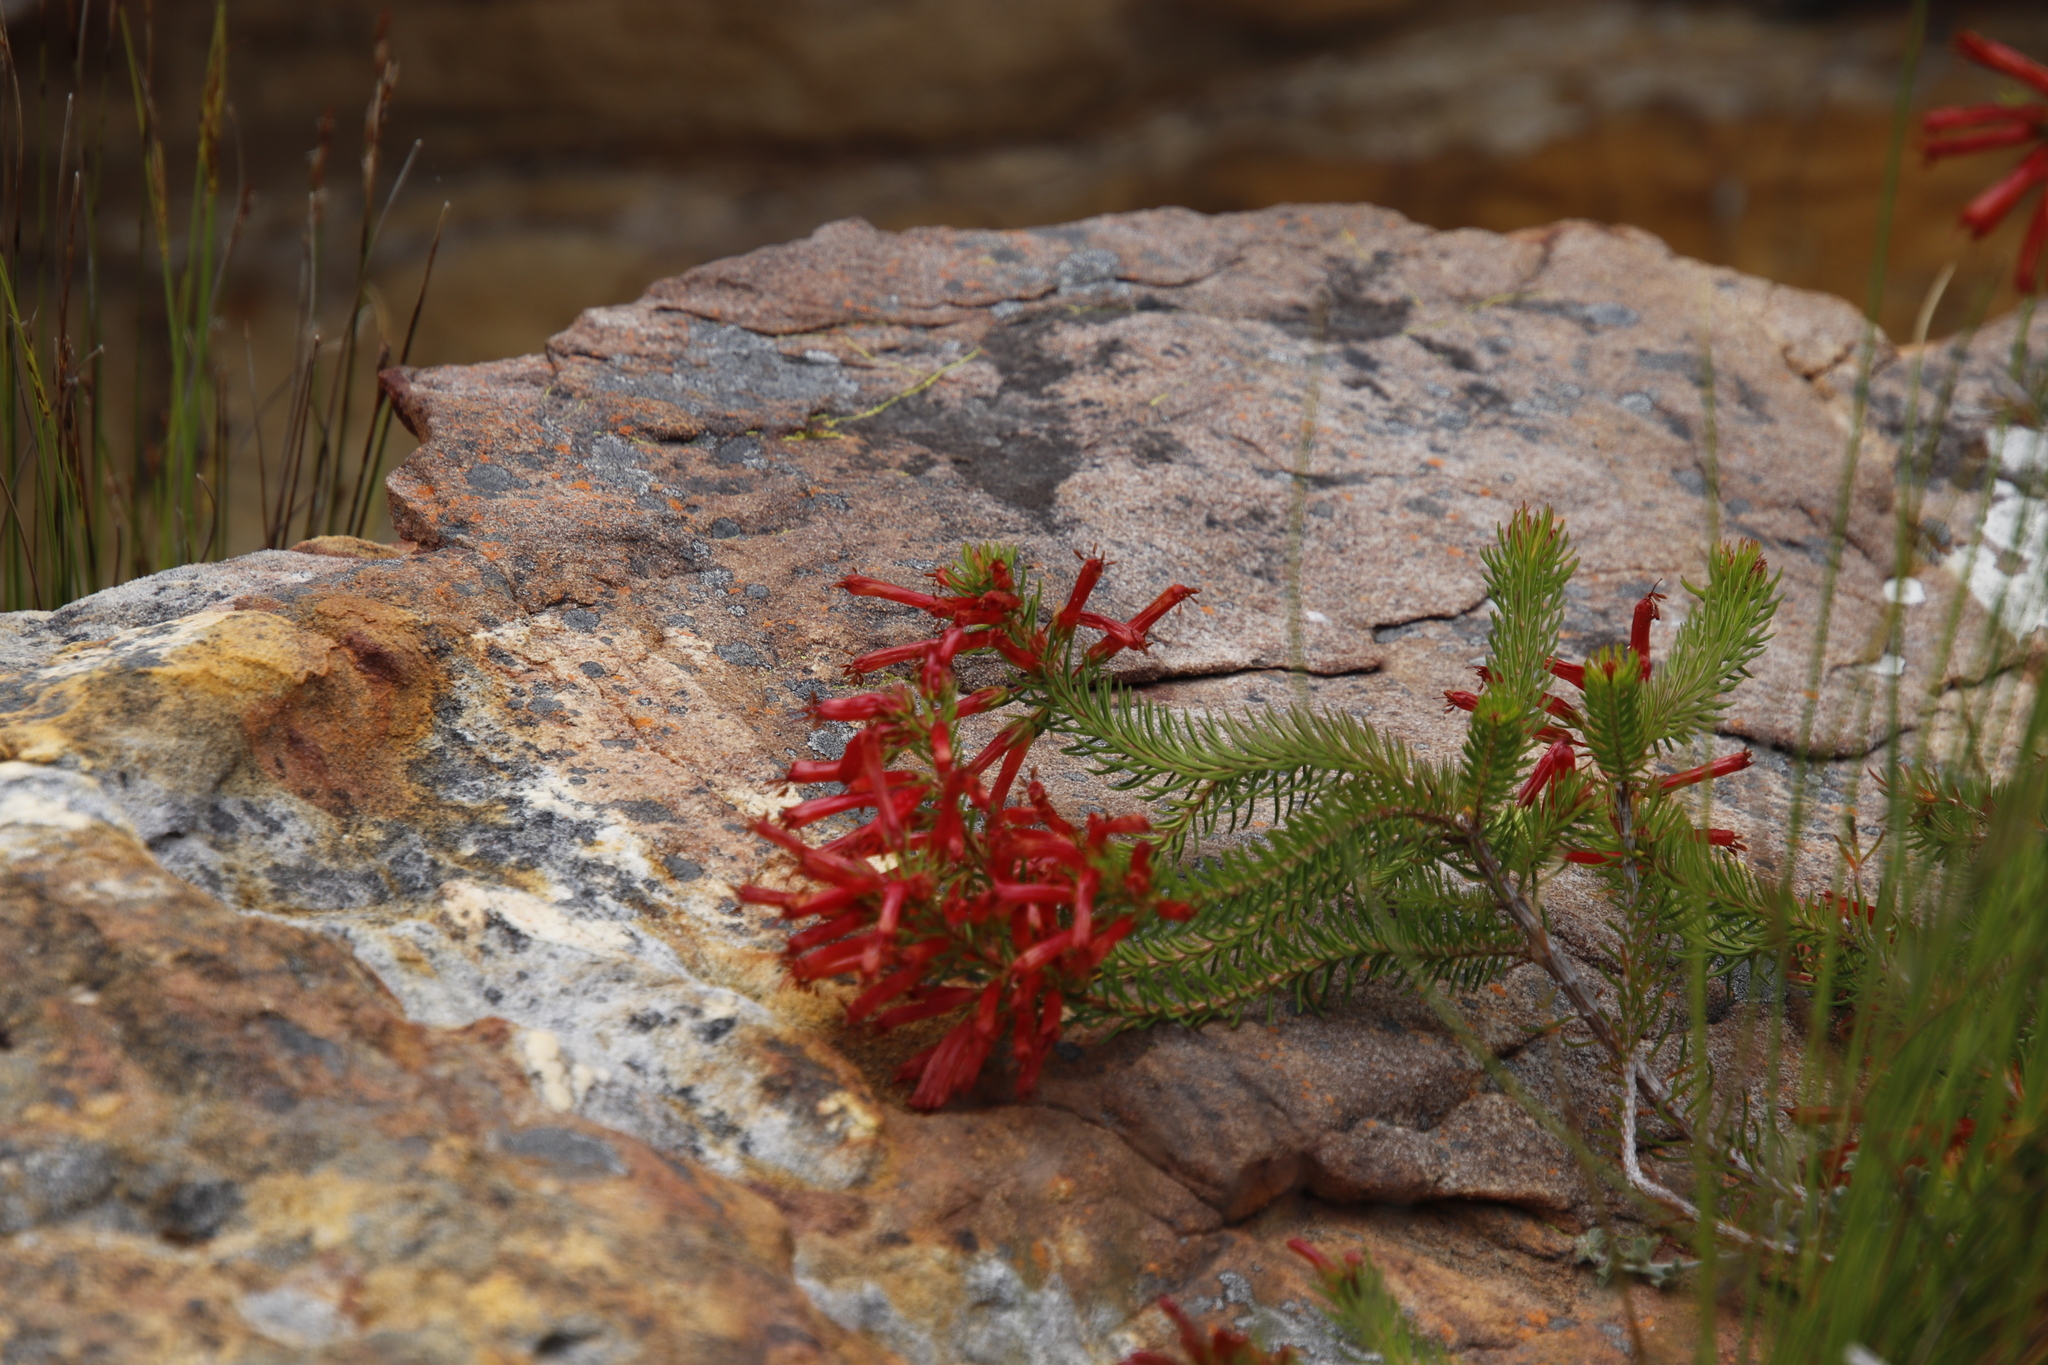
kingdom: Plantae
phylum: Tracheophyta
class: Magnoliopsida
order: Ericales
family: Ericaceae
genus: Erica
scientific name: Erica nevillei
